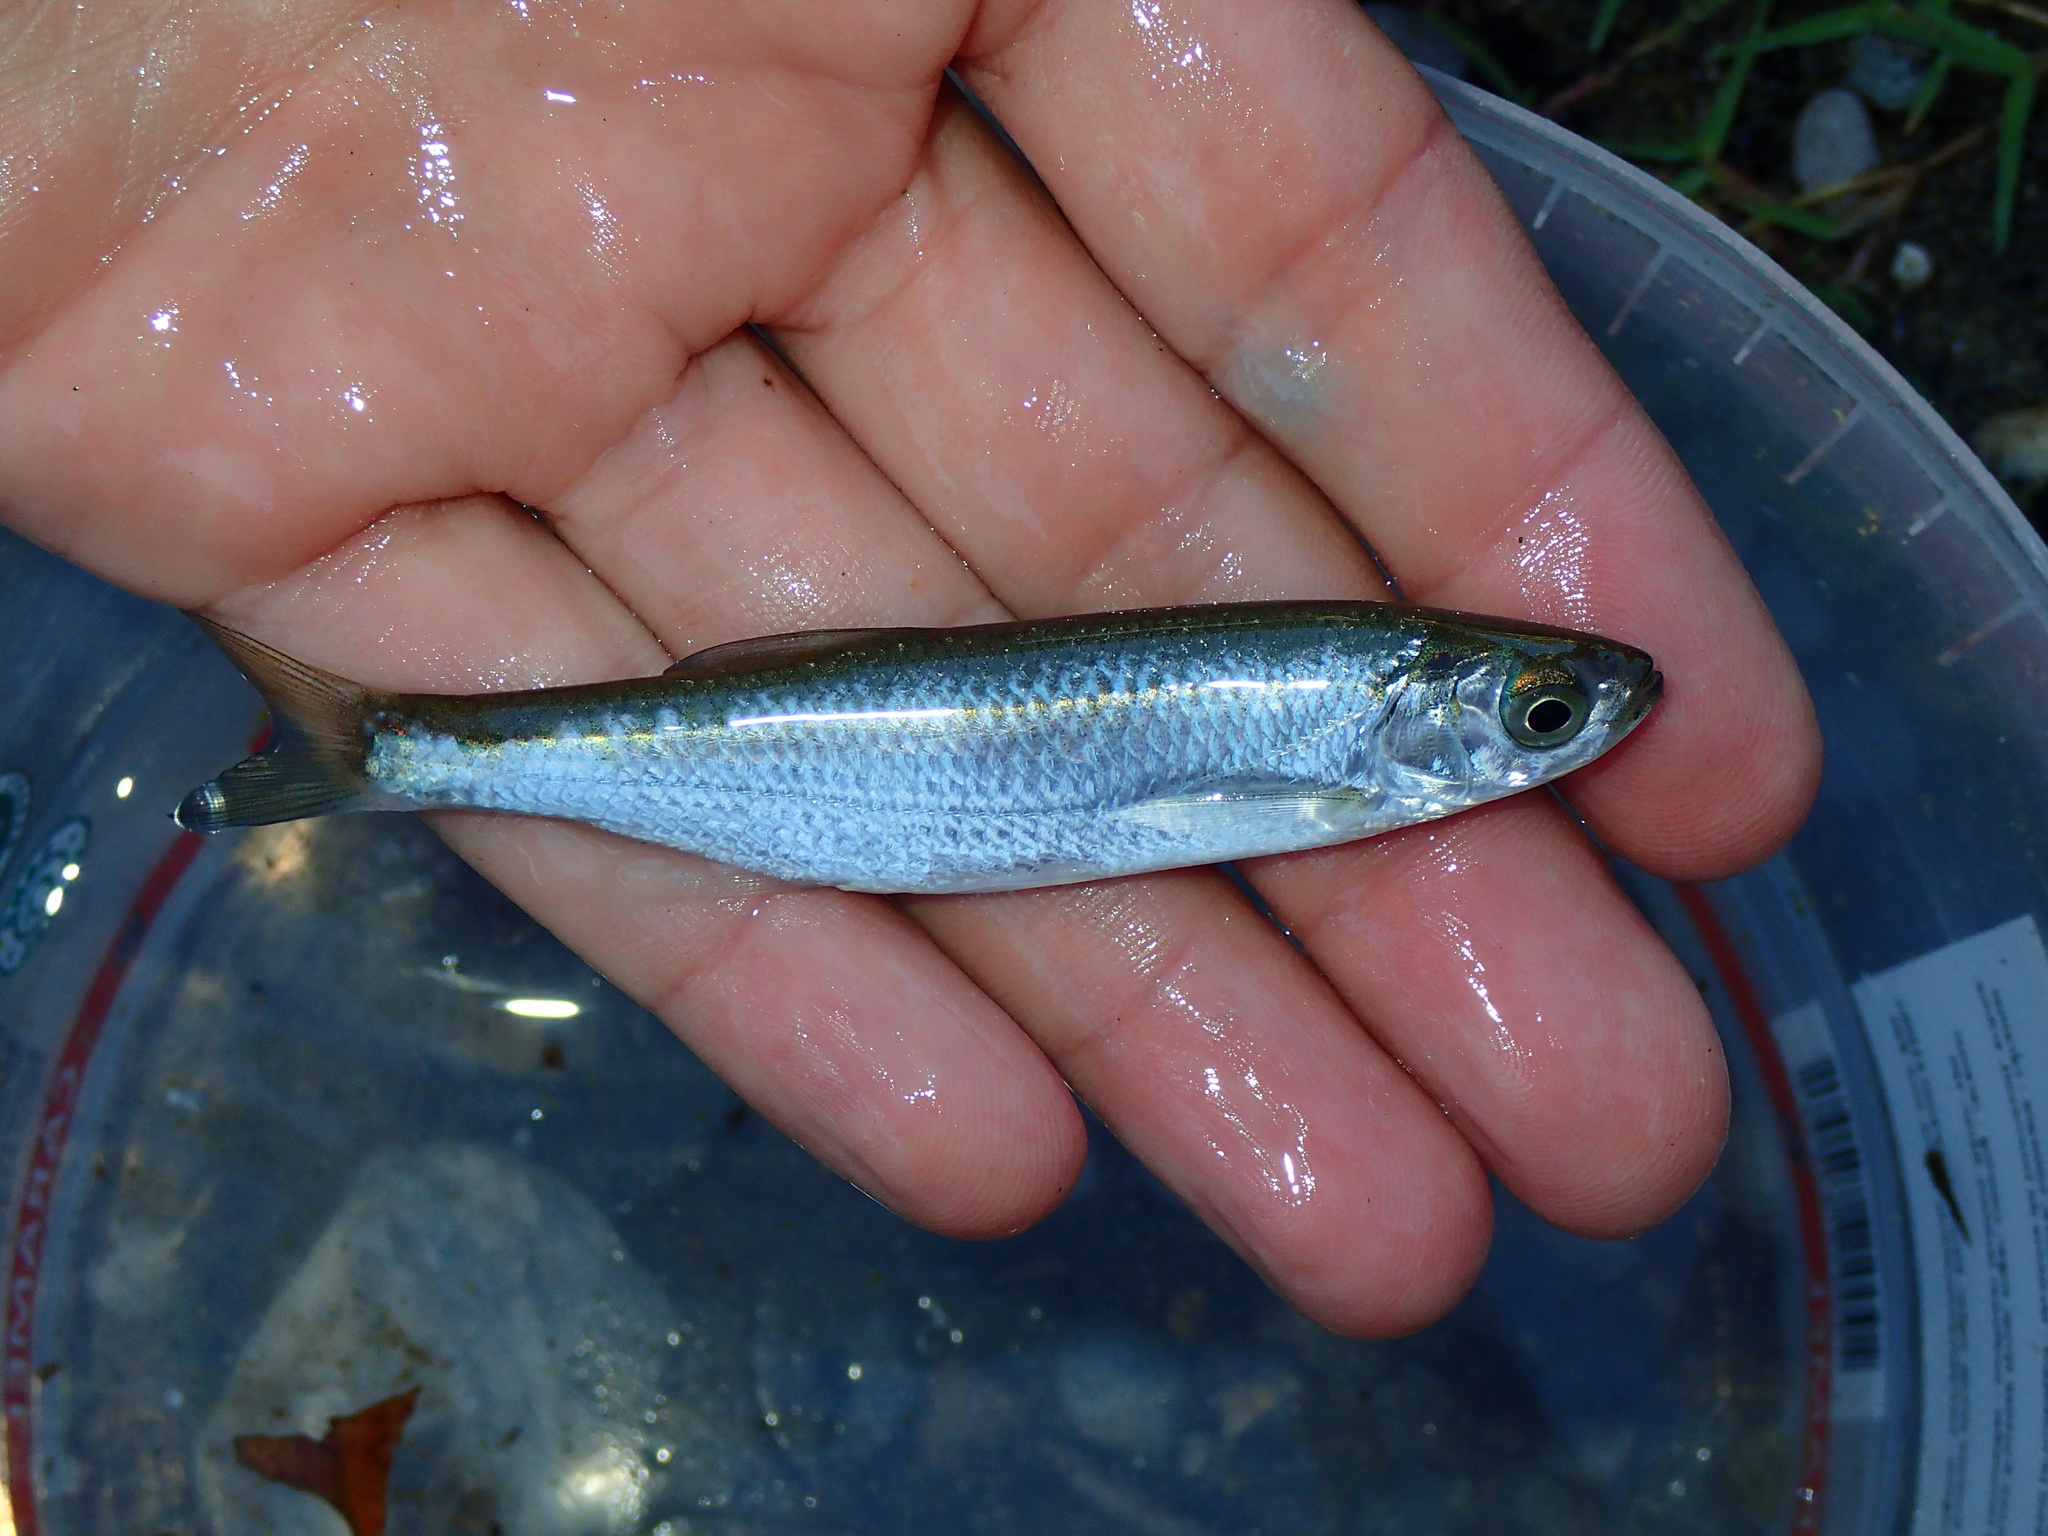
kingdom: Animalia
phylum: Chordata
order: Cypriniformes
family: Cyprinidae
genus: Alburnus
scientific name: Alburnus alburnus
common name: Bleak
